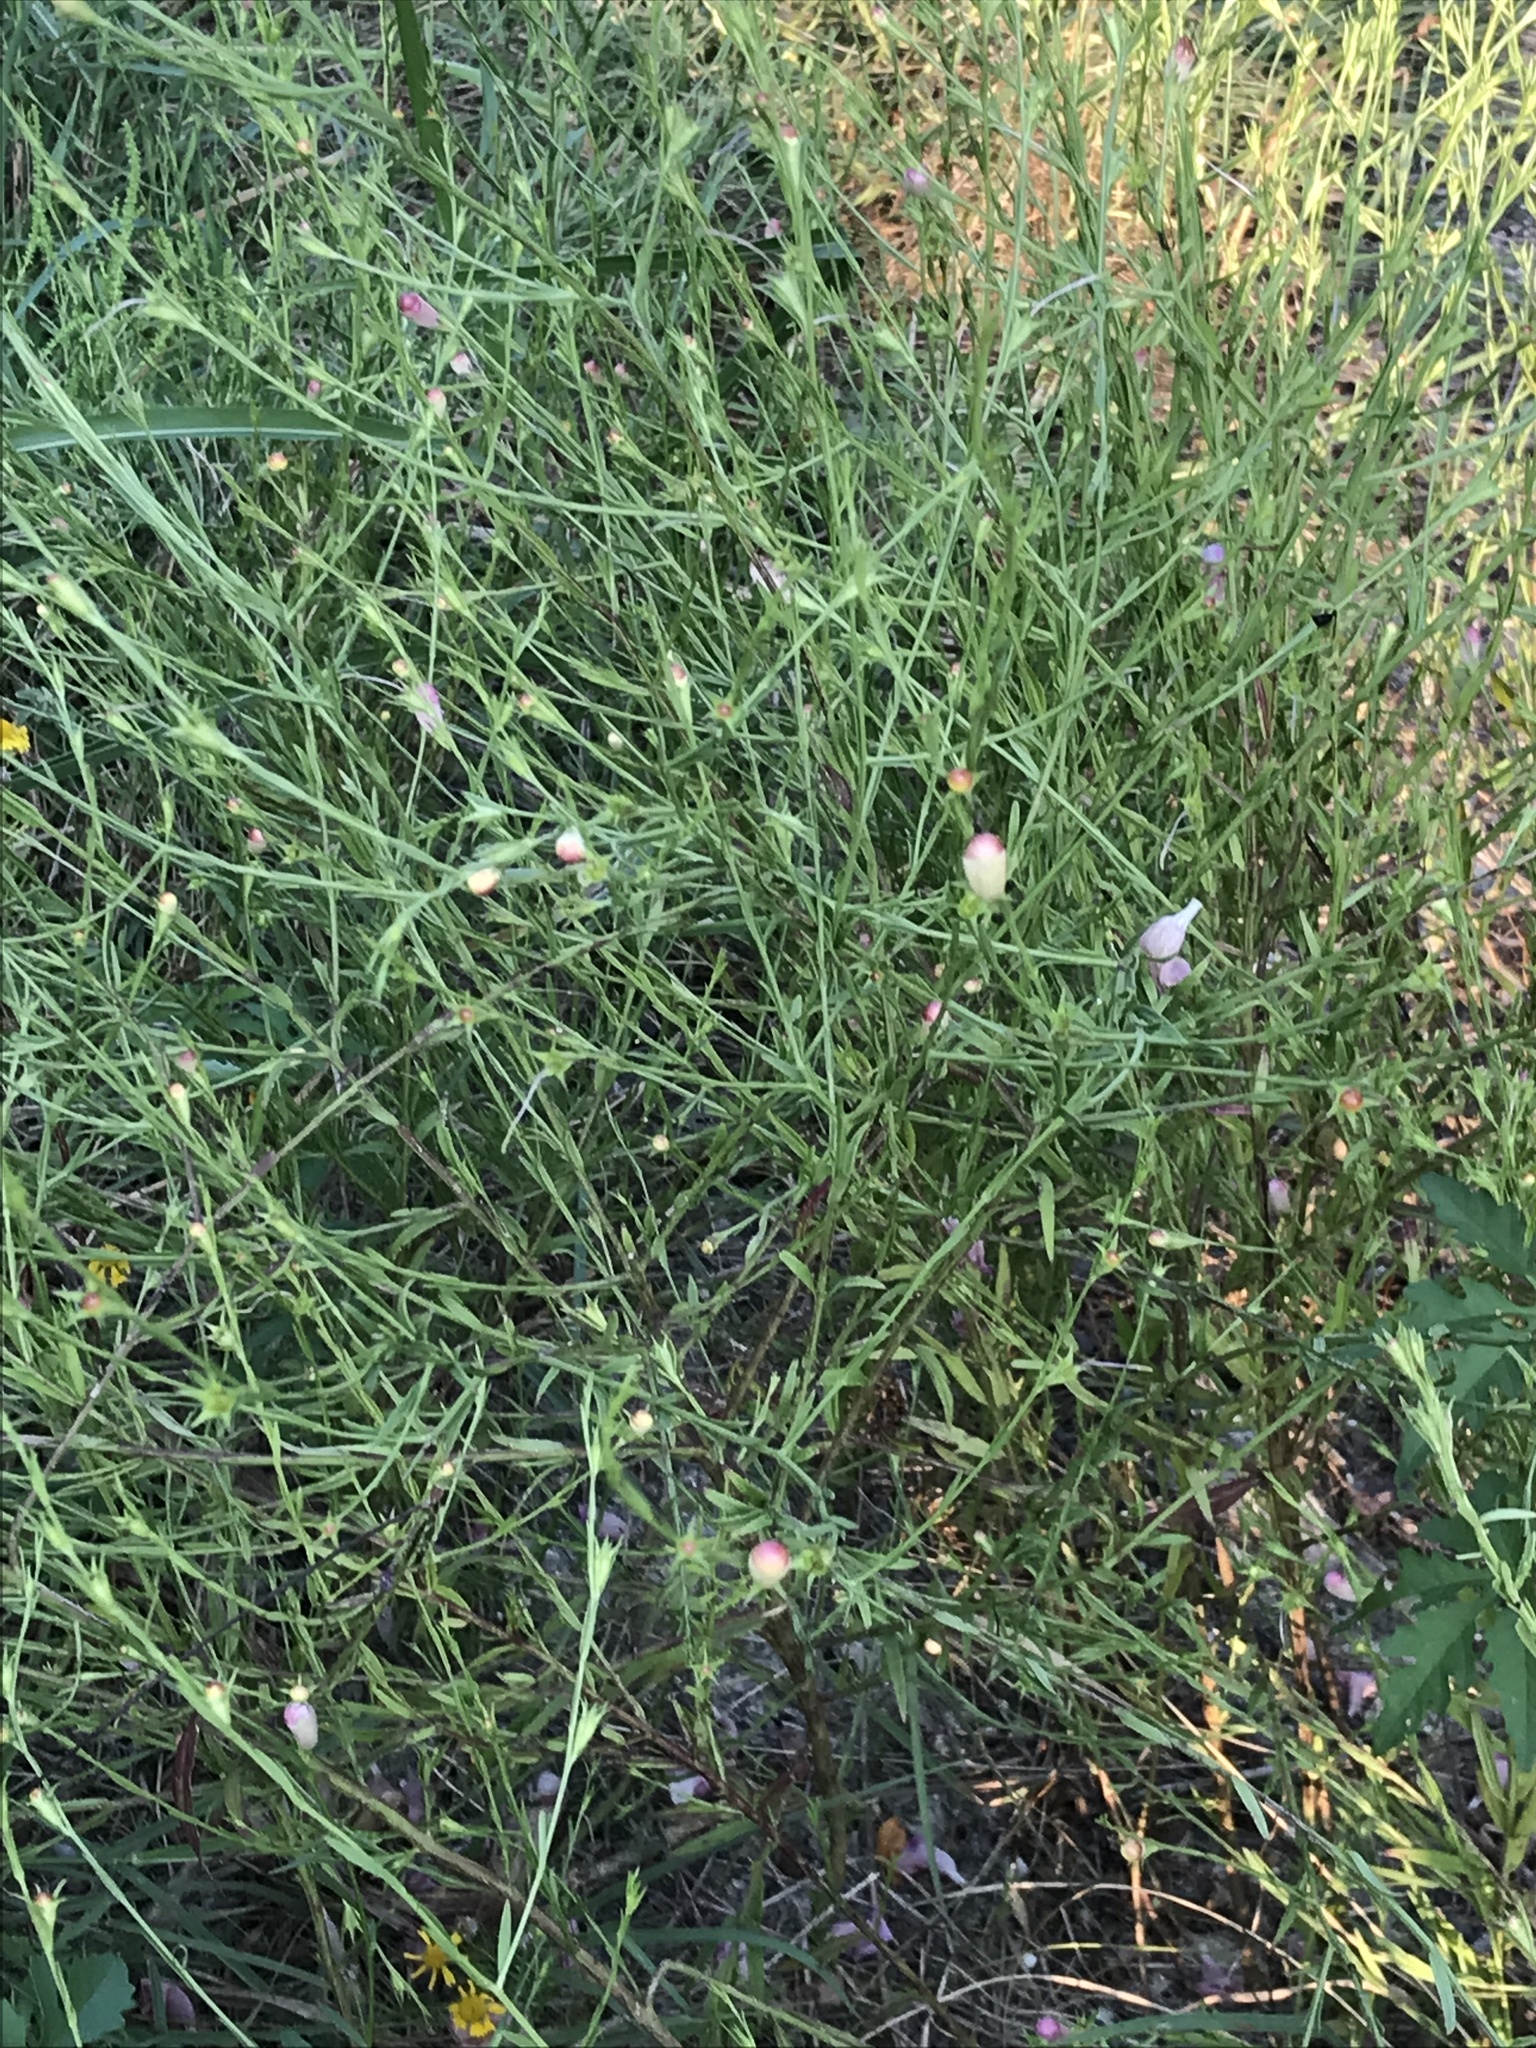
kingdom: Plantae
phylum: Tracheophyta
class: Magnoliopsida
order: Lamiales
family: Orobanchaceae
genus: Agalinis
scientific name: Agalinis heterophylla
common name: Prairie agalinis
